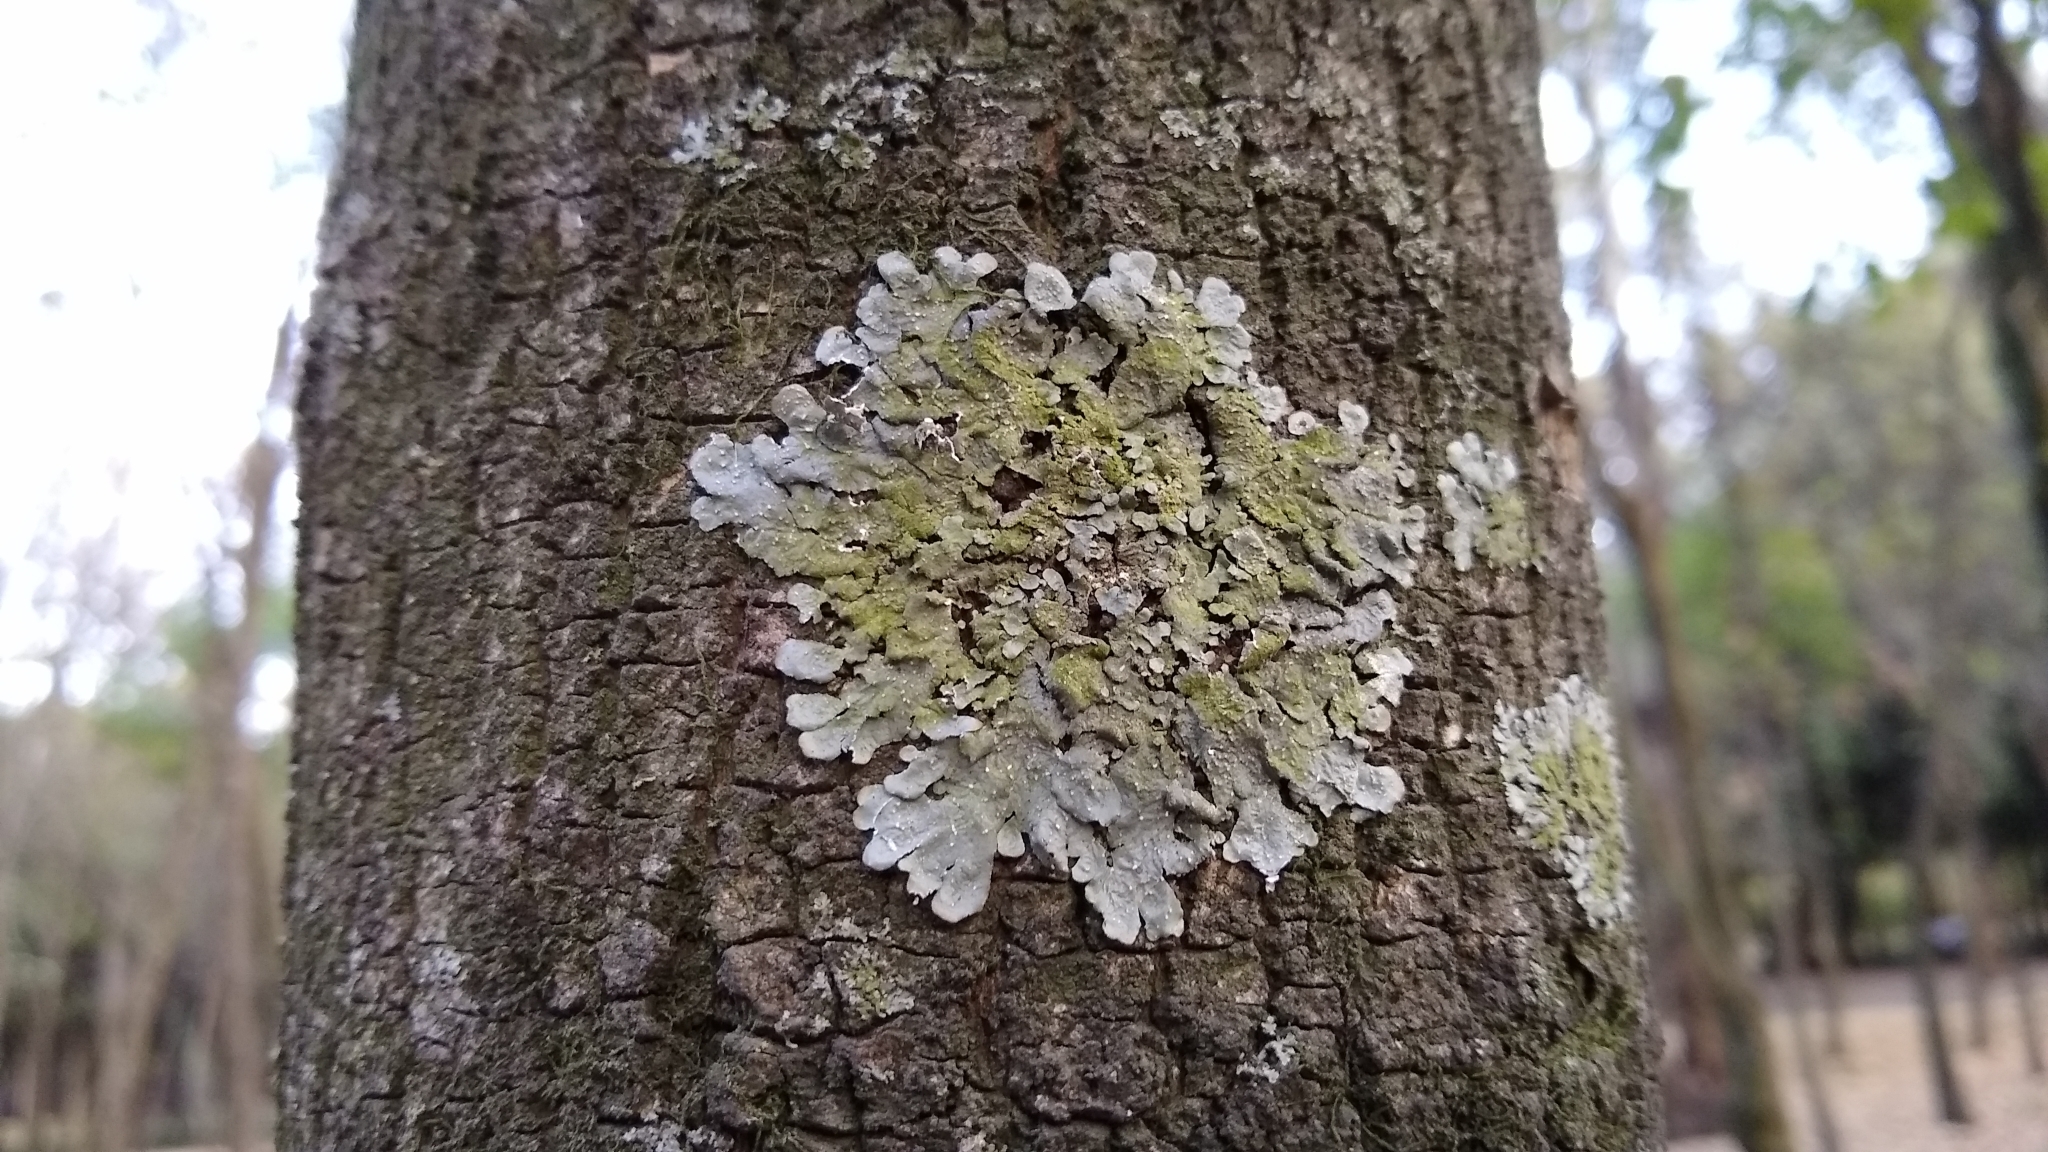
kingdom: Fungi
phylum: Ascomycota
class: Lecanoromycetes
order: Lecanorales
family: Parmeliaceae
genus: Punctelia
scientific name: Punctelia
